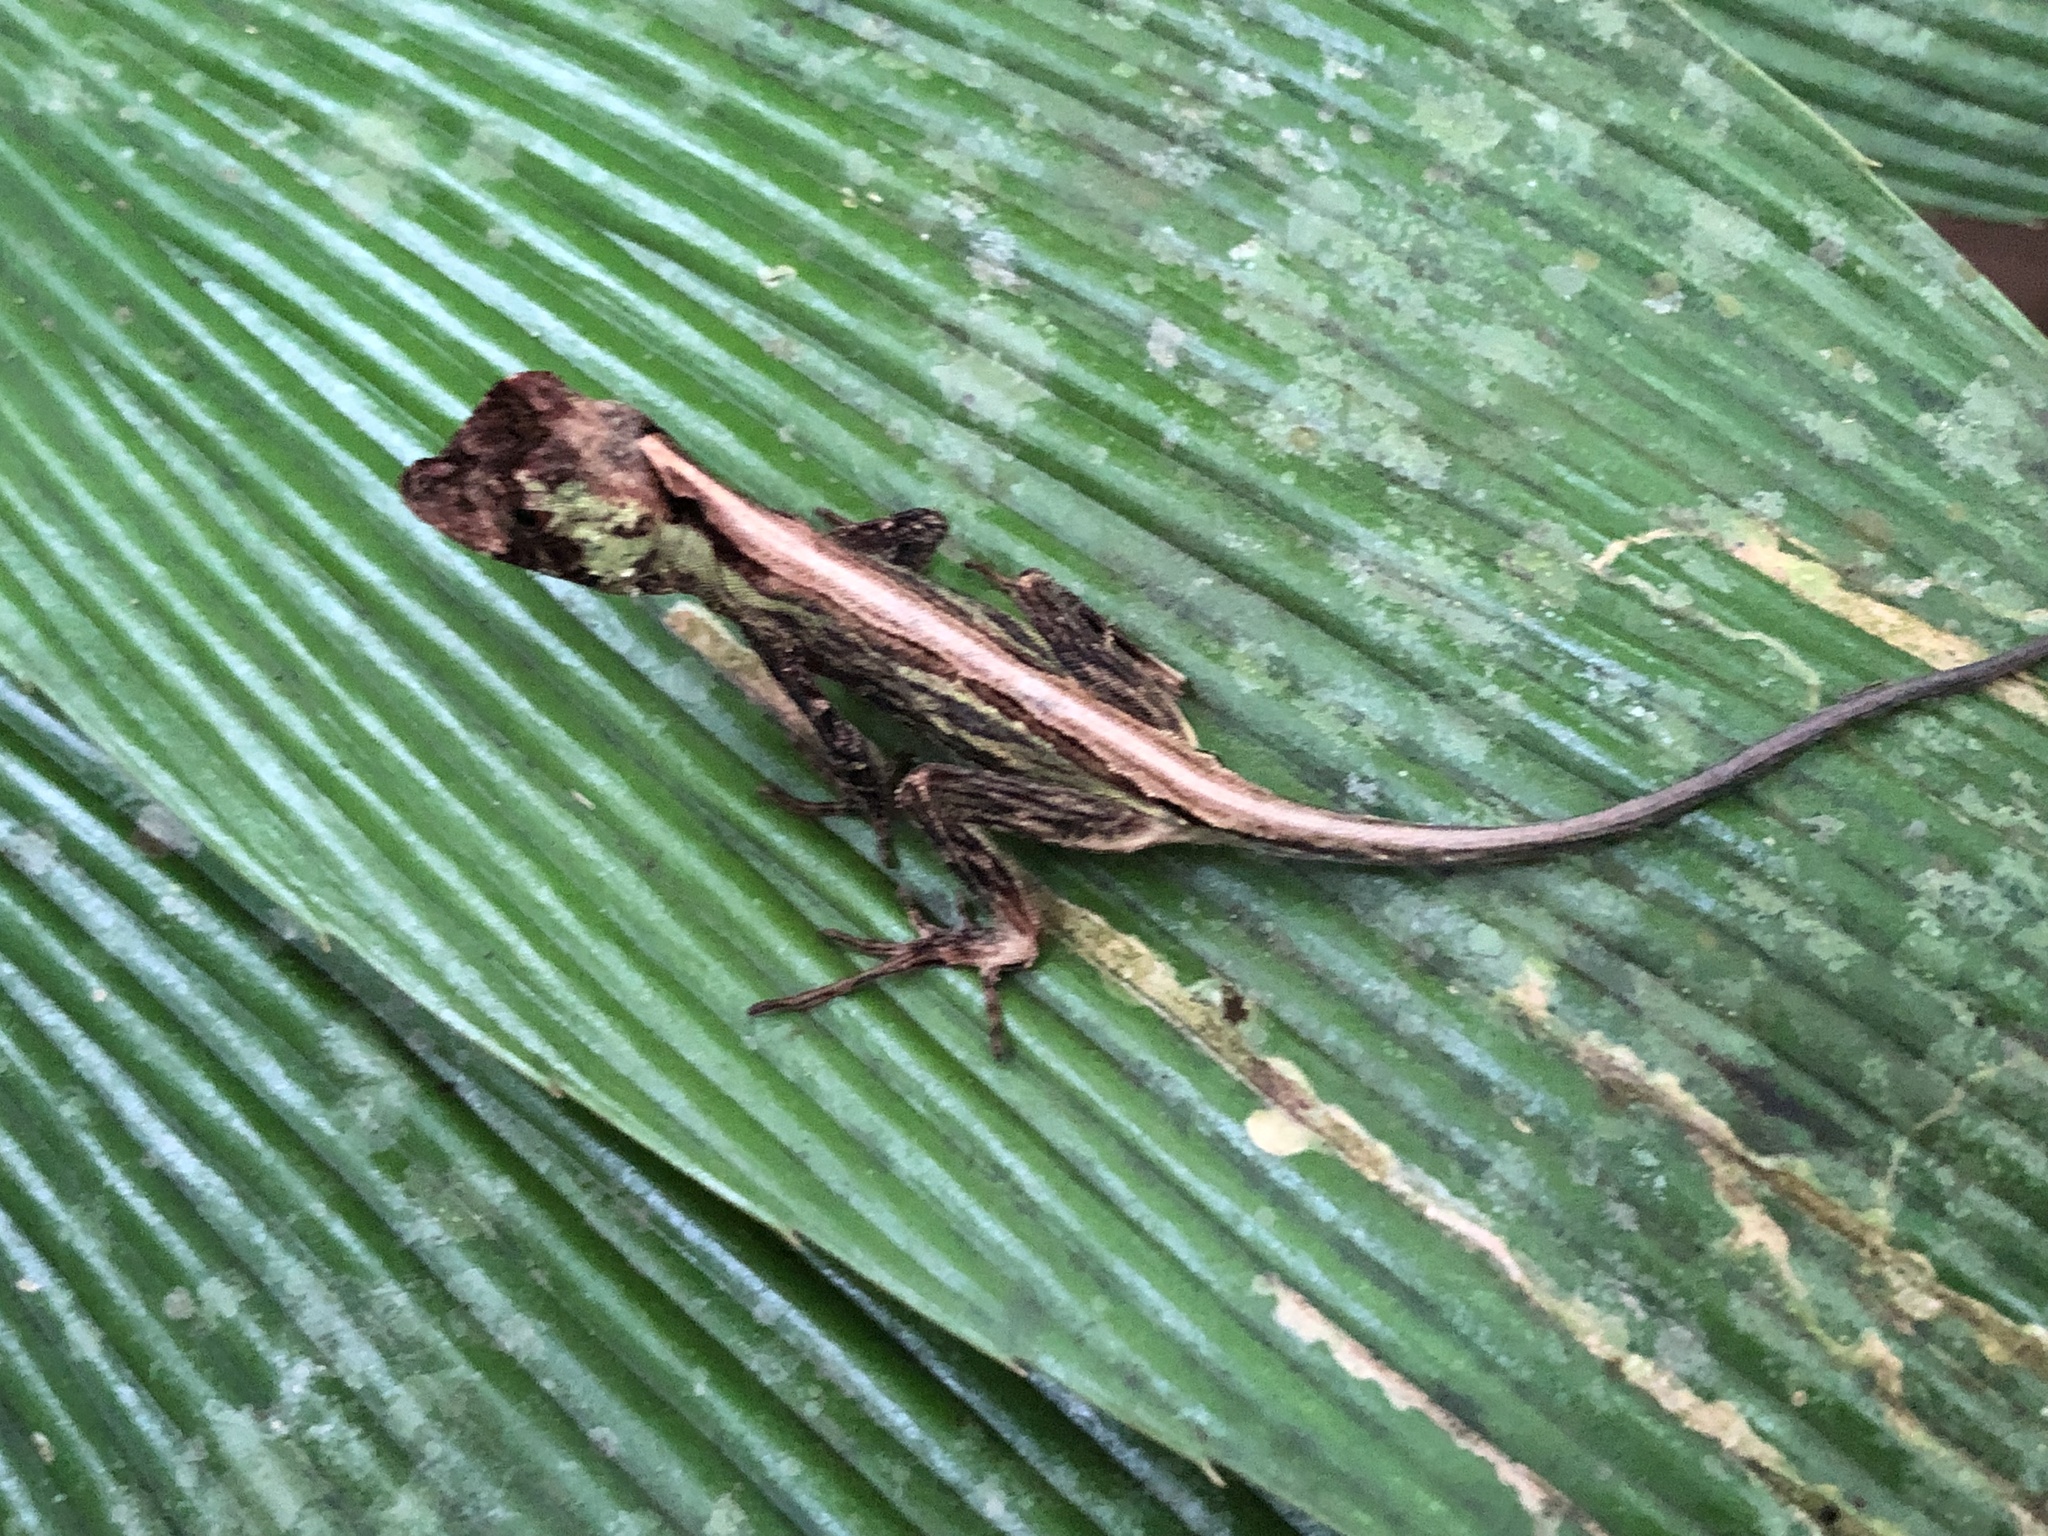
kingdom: Animalia
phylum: Chordata
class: Squamata
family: Dactyloidae
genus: Anolis
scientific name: Anolis capito
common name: Bighead anole
